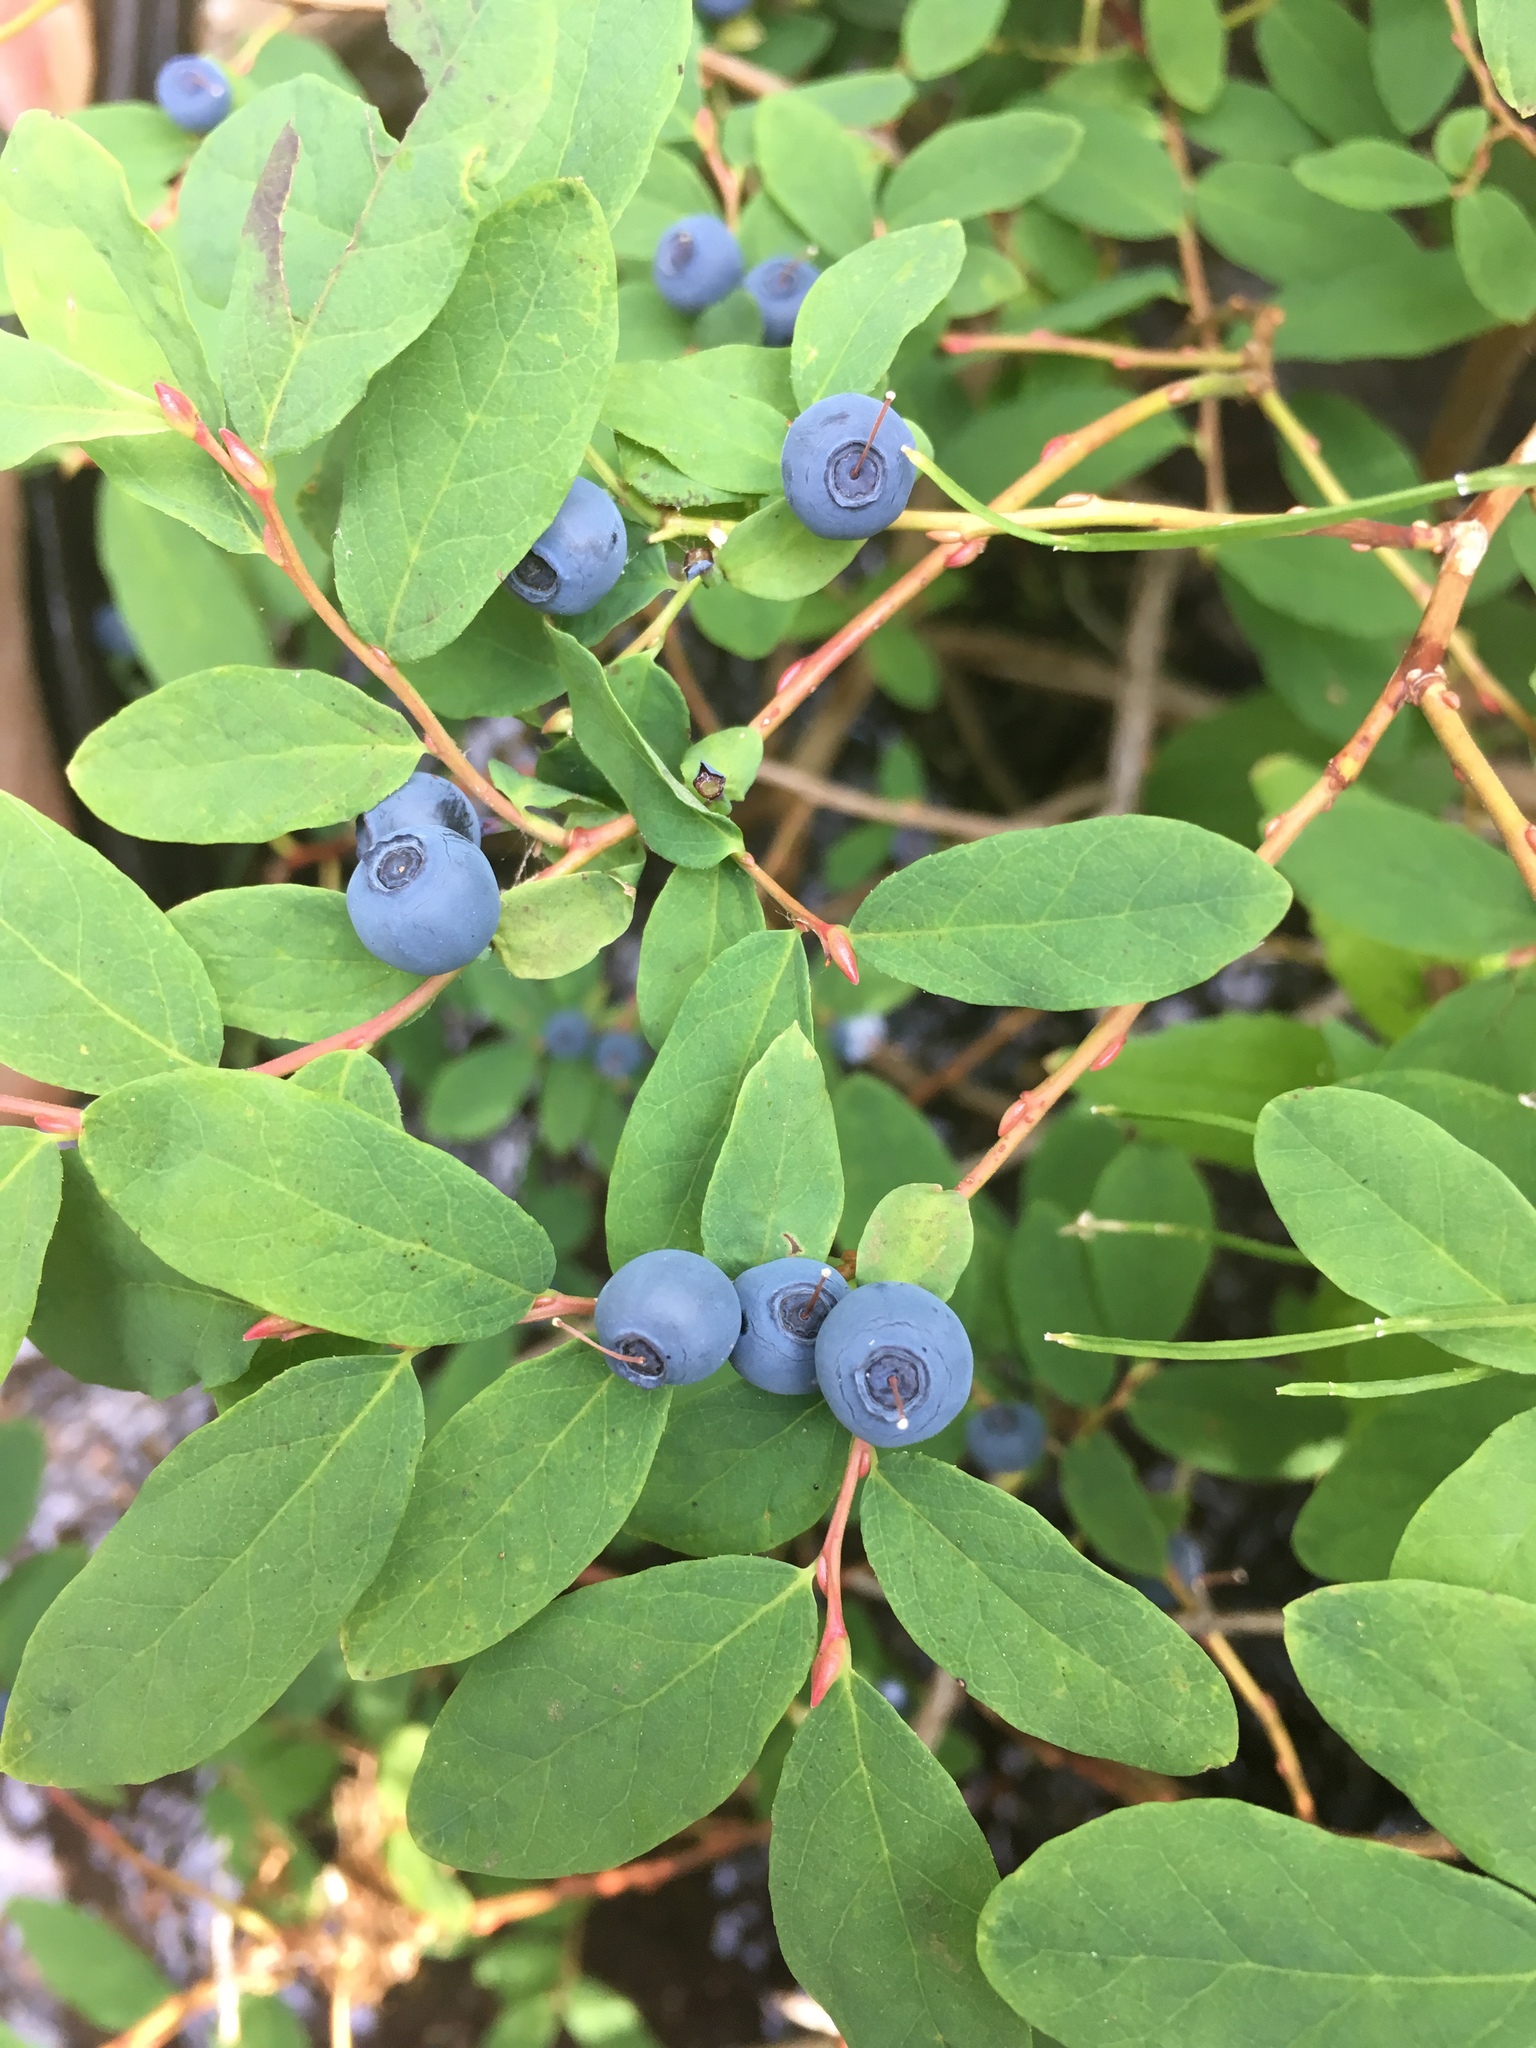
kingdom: Plantae
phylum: Tracheophyta
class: Magnoliopsida
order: Ericales
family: Ericaceae
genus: Vaccinium
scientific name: Vaccinium ovalifolium
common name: Early blueberry
